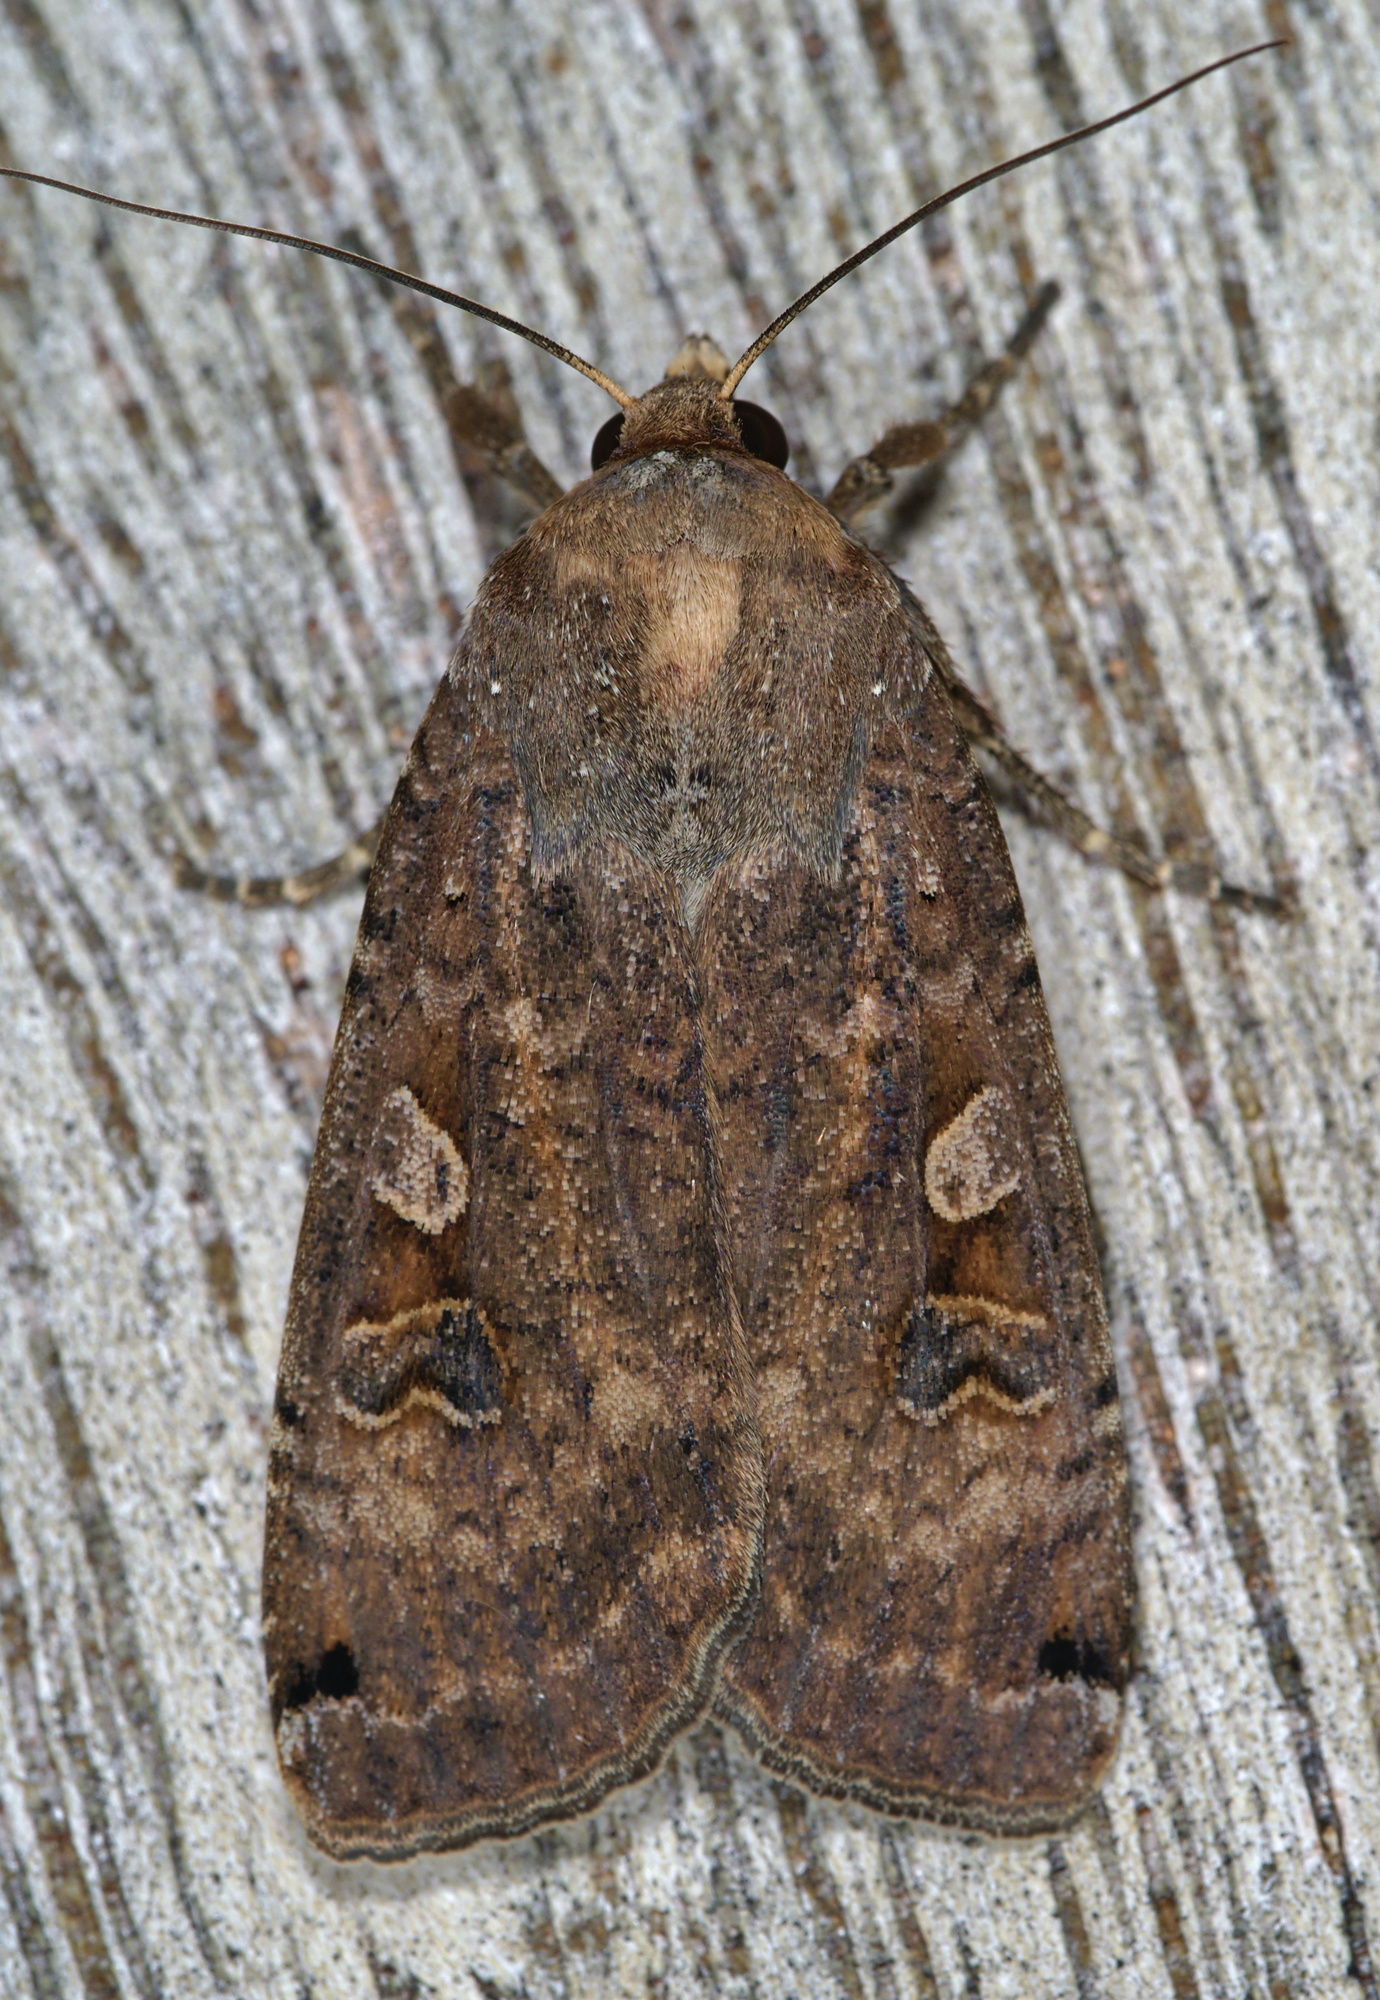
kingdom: Animalia
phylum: Arthropoda
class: Insecta
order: Lepidoptera
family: Noctuidae
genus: Noctua
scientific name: Noctua pronuba
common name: Large yellow underwing
